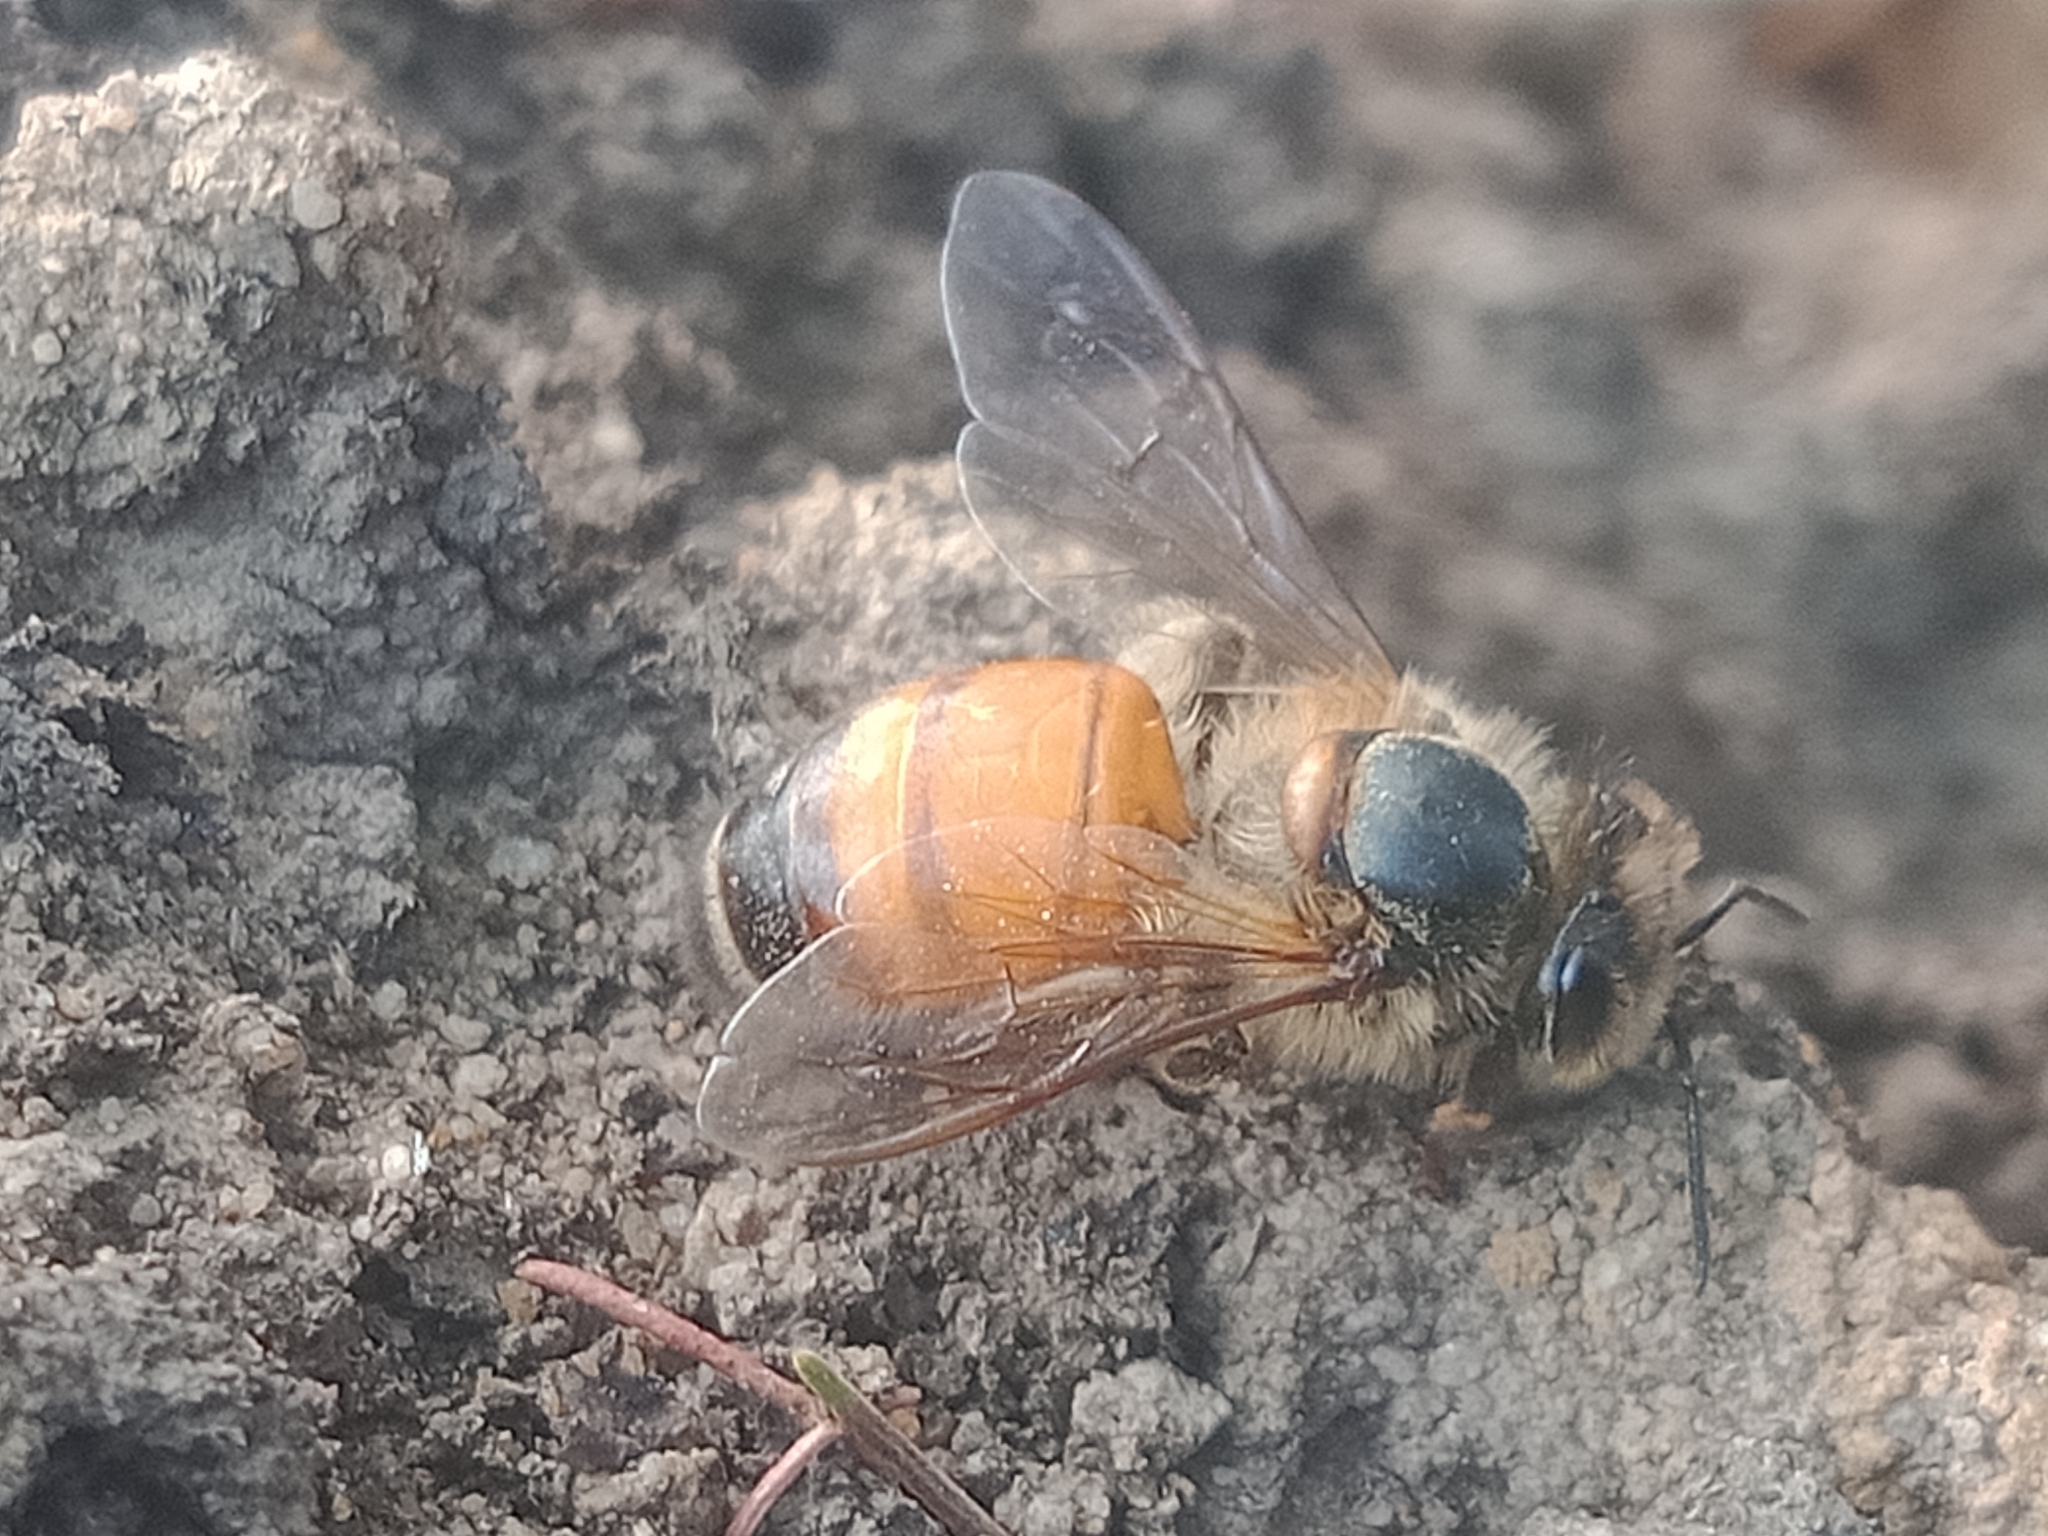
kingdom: Animalia
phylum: Arthropoda
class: Insecta
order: Hymenoptera
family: Apidae
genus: Apis
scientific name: Apis mellifera
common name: Honey bee
